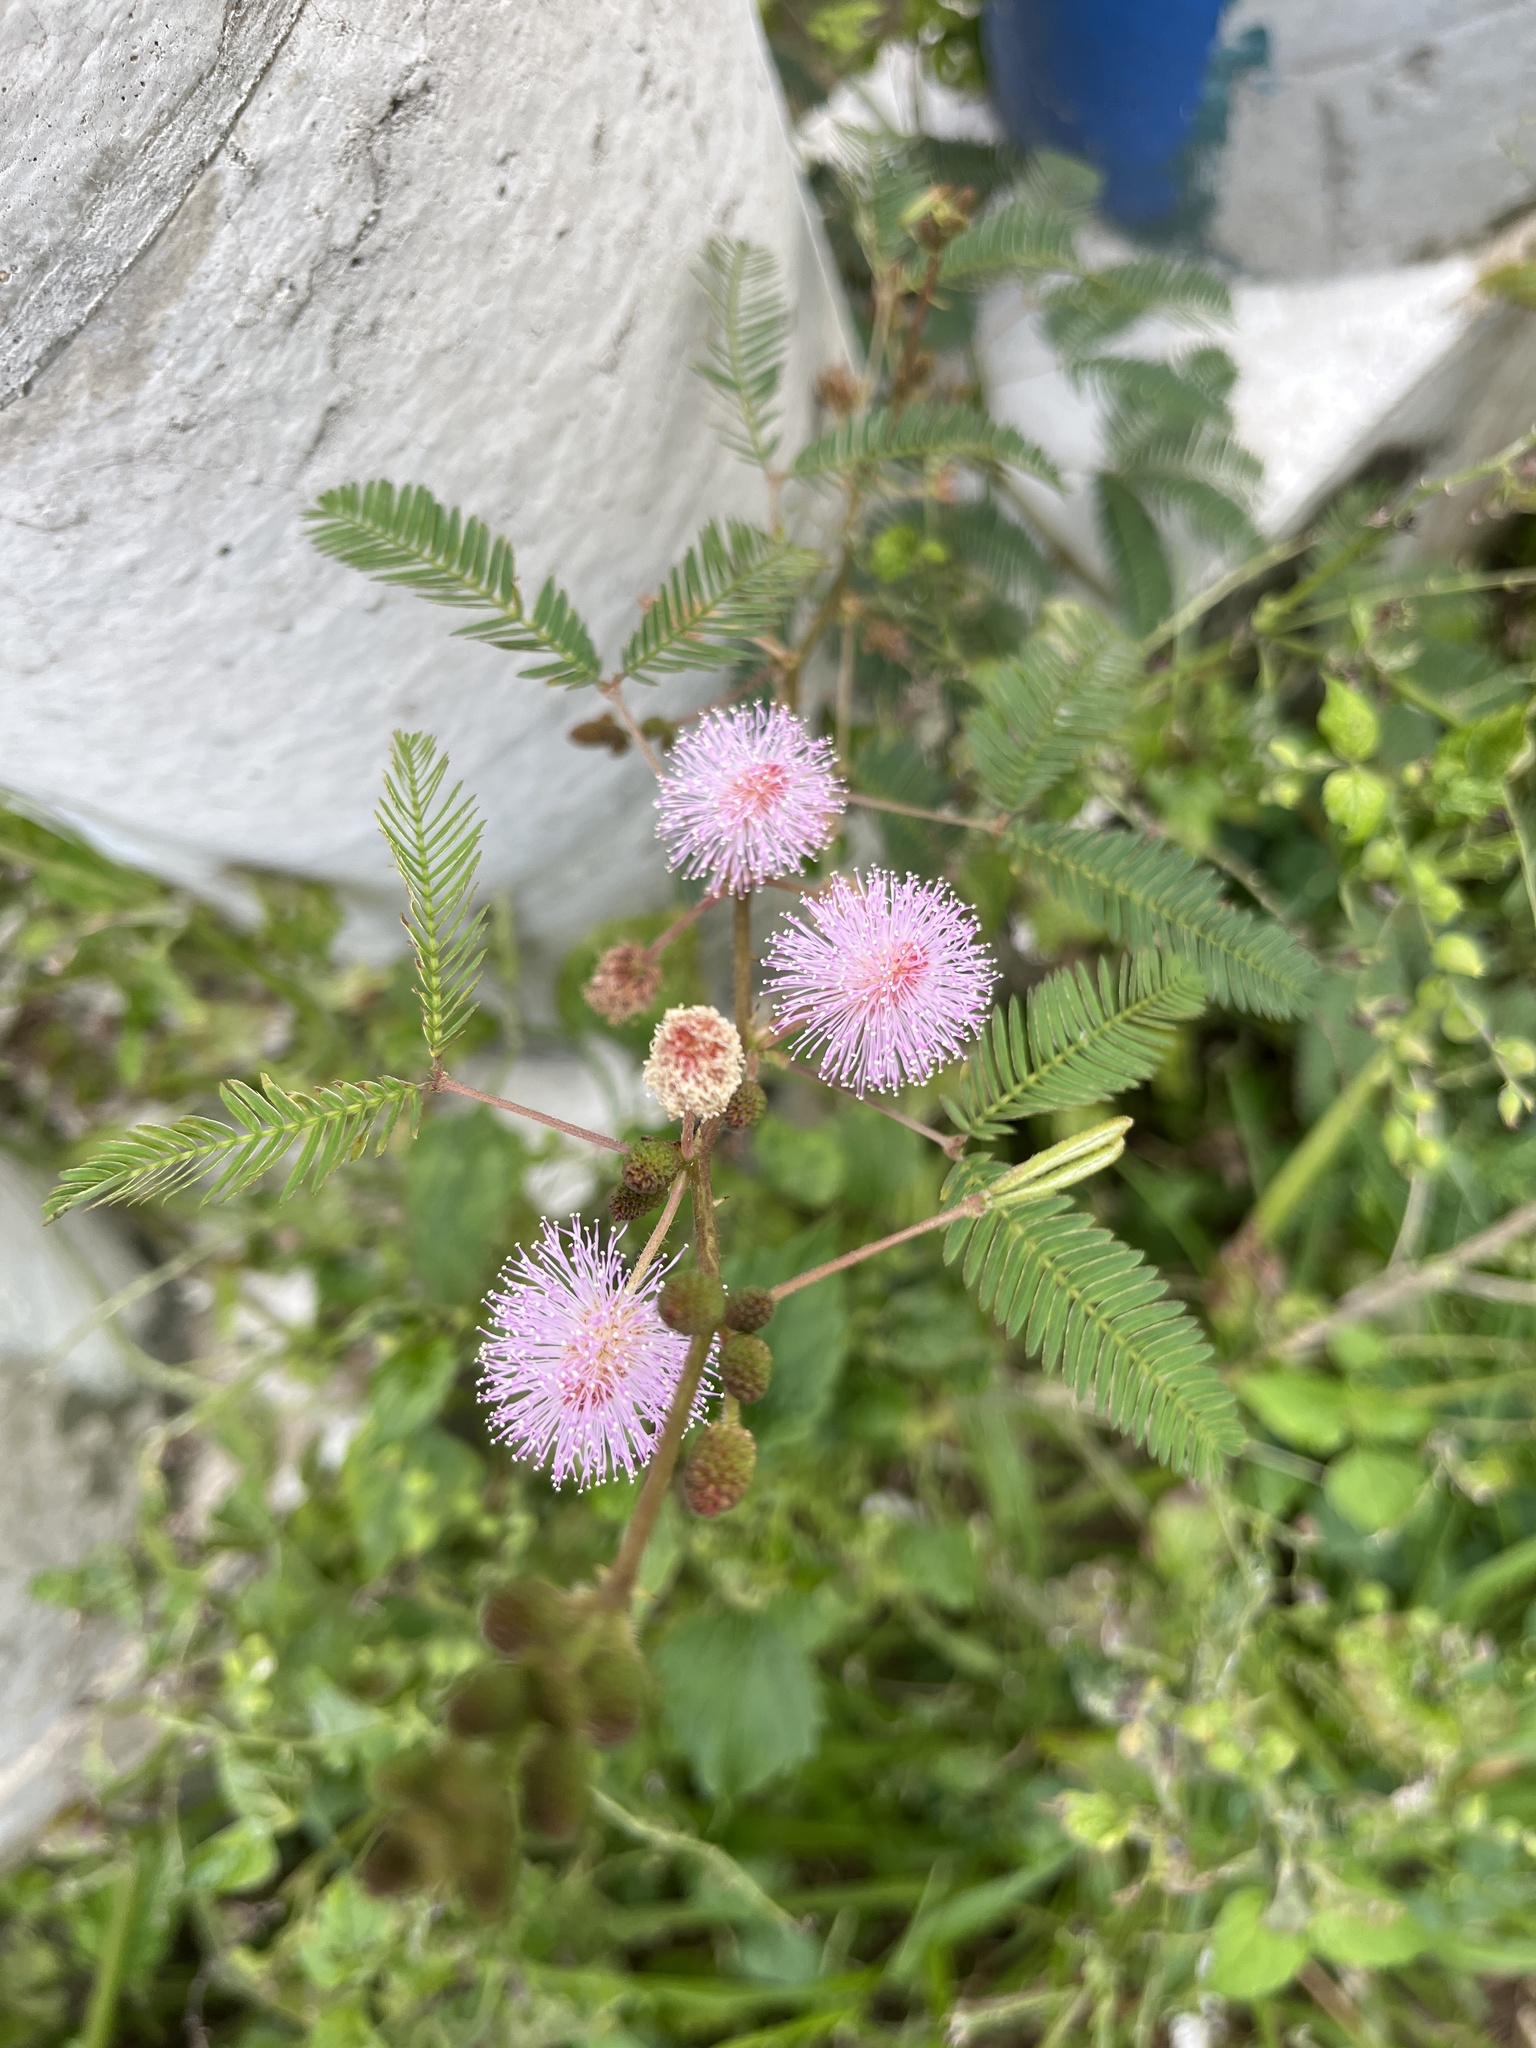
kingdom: Plantae
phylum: Tracheophyta
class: Magnoliopsida
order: Fabales
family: Fabaceae
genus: Mimosa
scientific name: Mimosa pudica
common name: Sensitive plant
